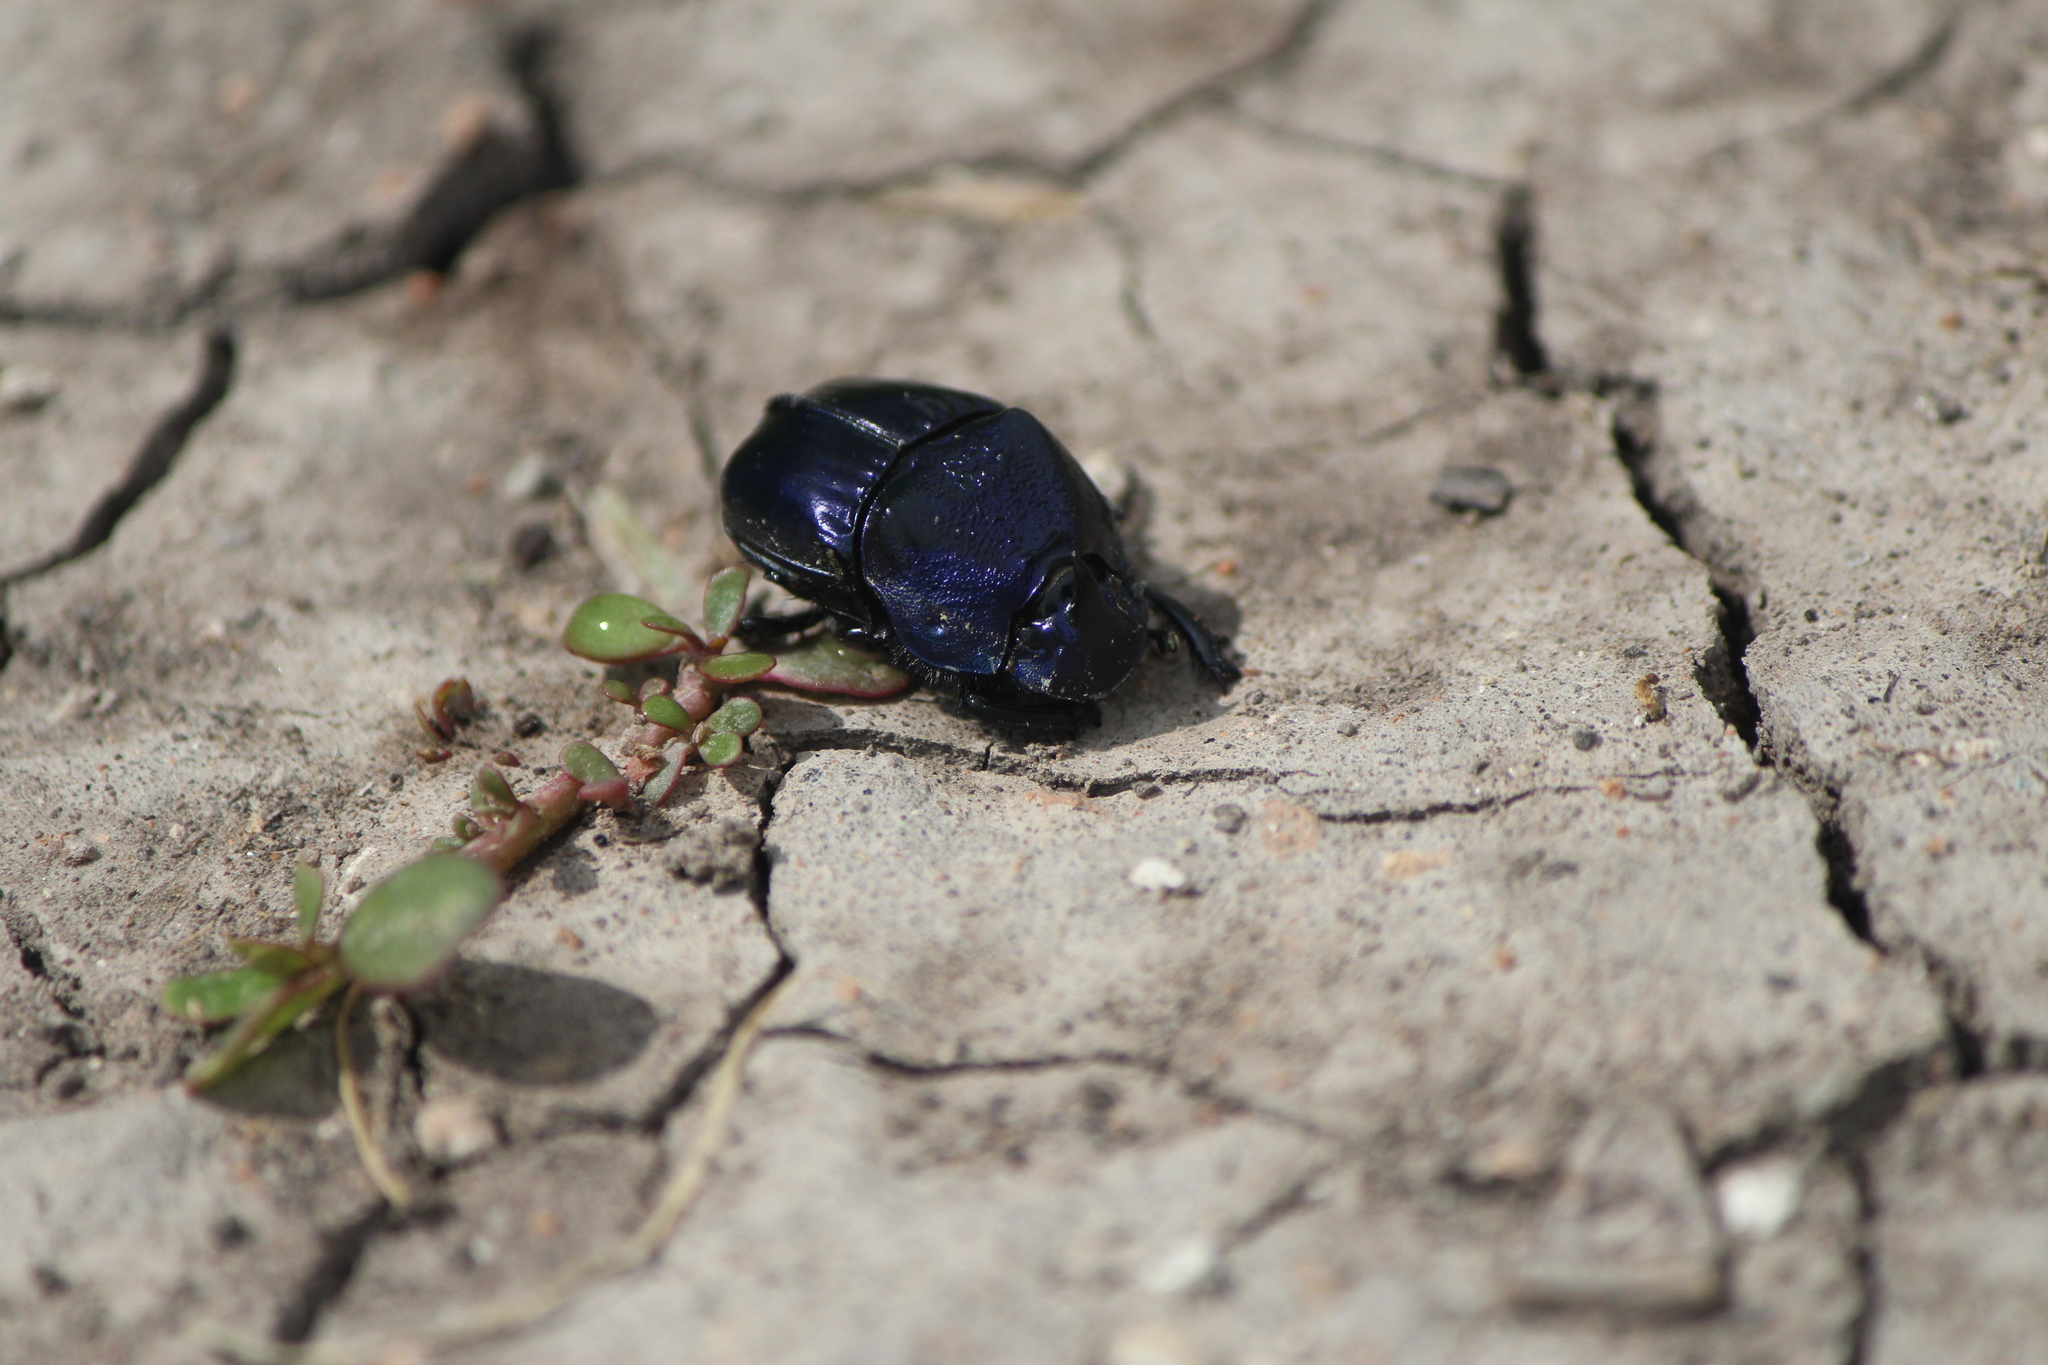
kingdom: Animalia
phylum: Arthropoda
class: Insecta
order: Coleoptera
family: Scarabaeidae
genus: Phanaeus
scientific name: Phanaeus adonis
